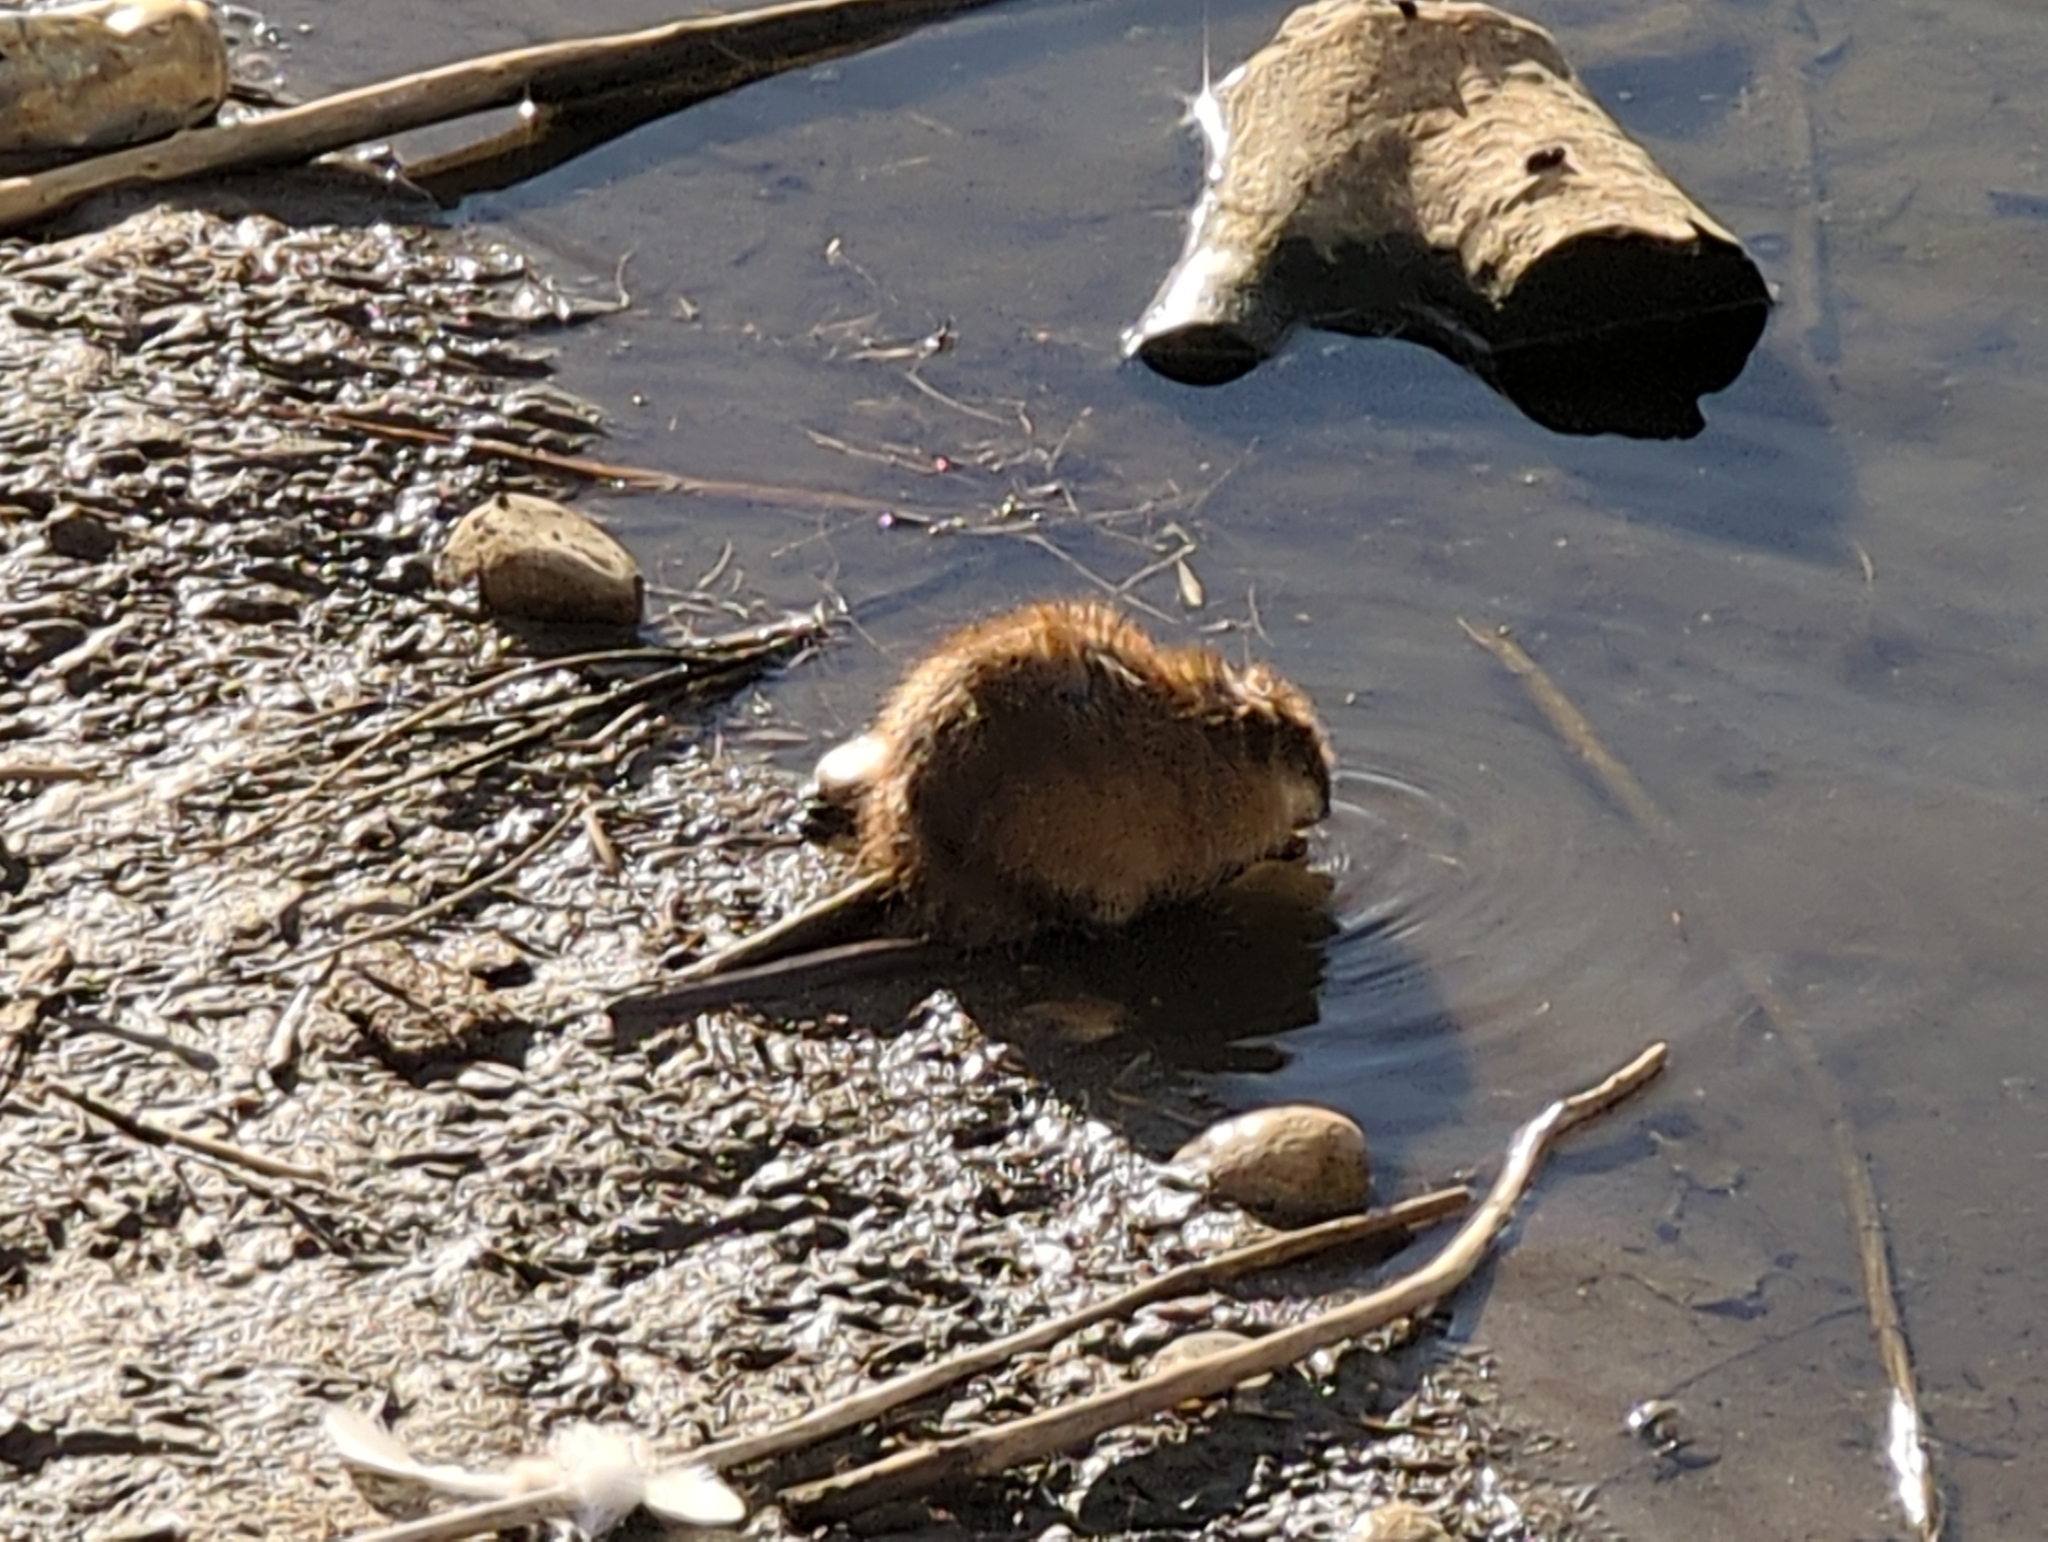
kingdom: Animalia
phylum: Chordata
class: Mammalia
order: Rodentia
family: Cricetidae
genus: Ondatra
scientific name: Ondatra zibethicus
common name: Muskrat
